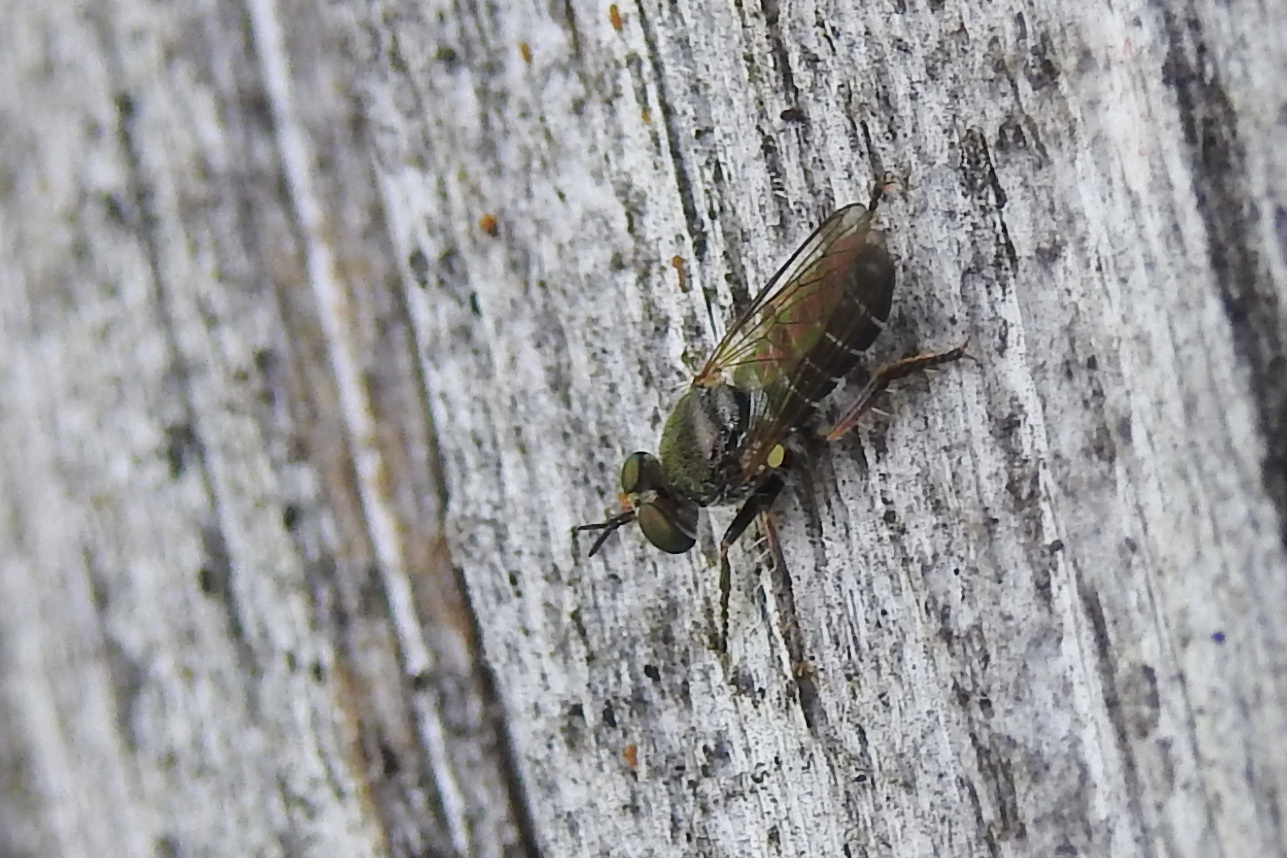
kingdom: Animalia
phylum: Arthropoda
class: Insecta
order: Diptera
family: Asilidae
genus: Atomosia
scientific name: Atomosia puella
